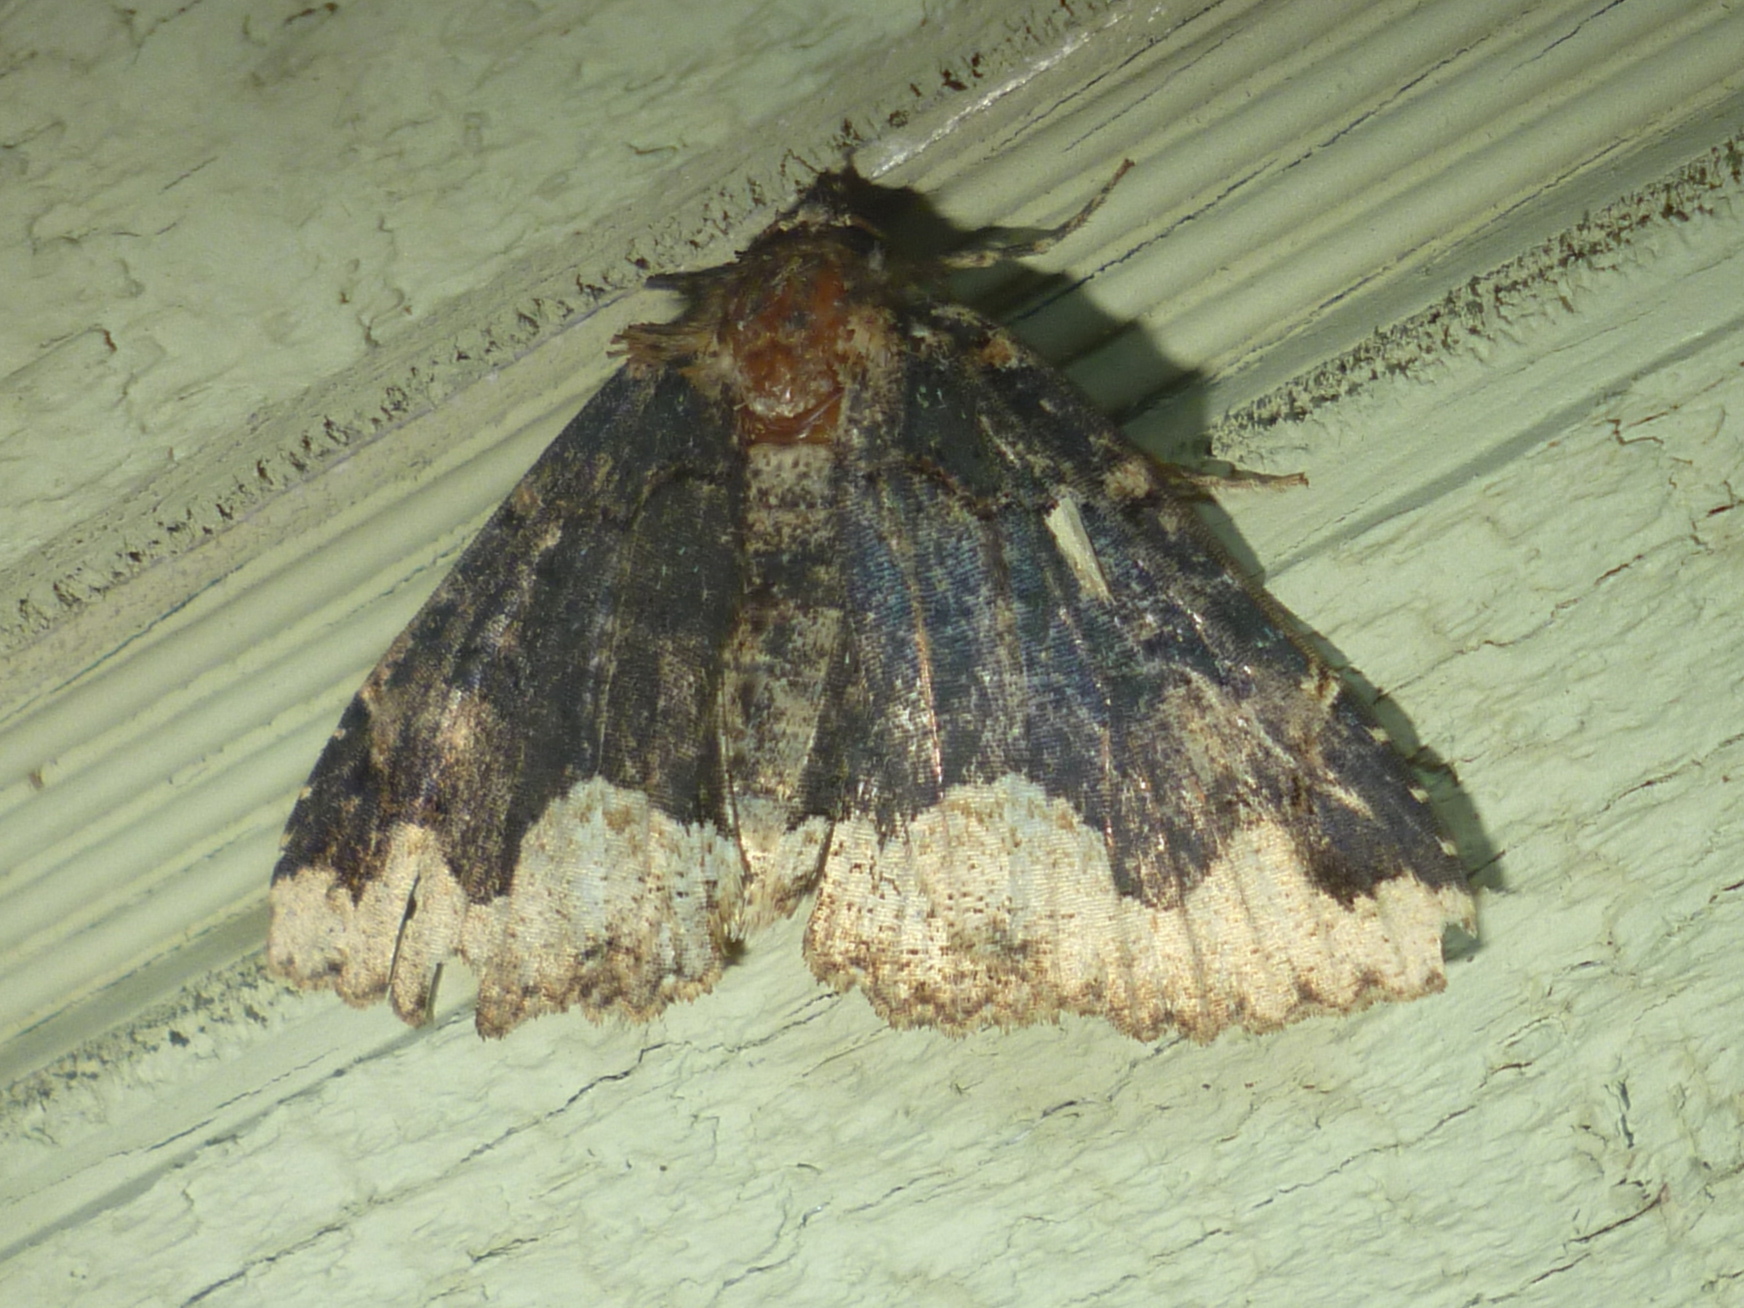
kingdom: Animalia
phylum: Arthropoda
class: Insecta
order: Lepidoptera
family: Erebidae
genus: Zale
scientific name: Zale horrida
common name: Horrid zale moth
